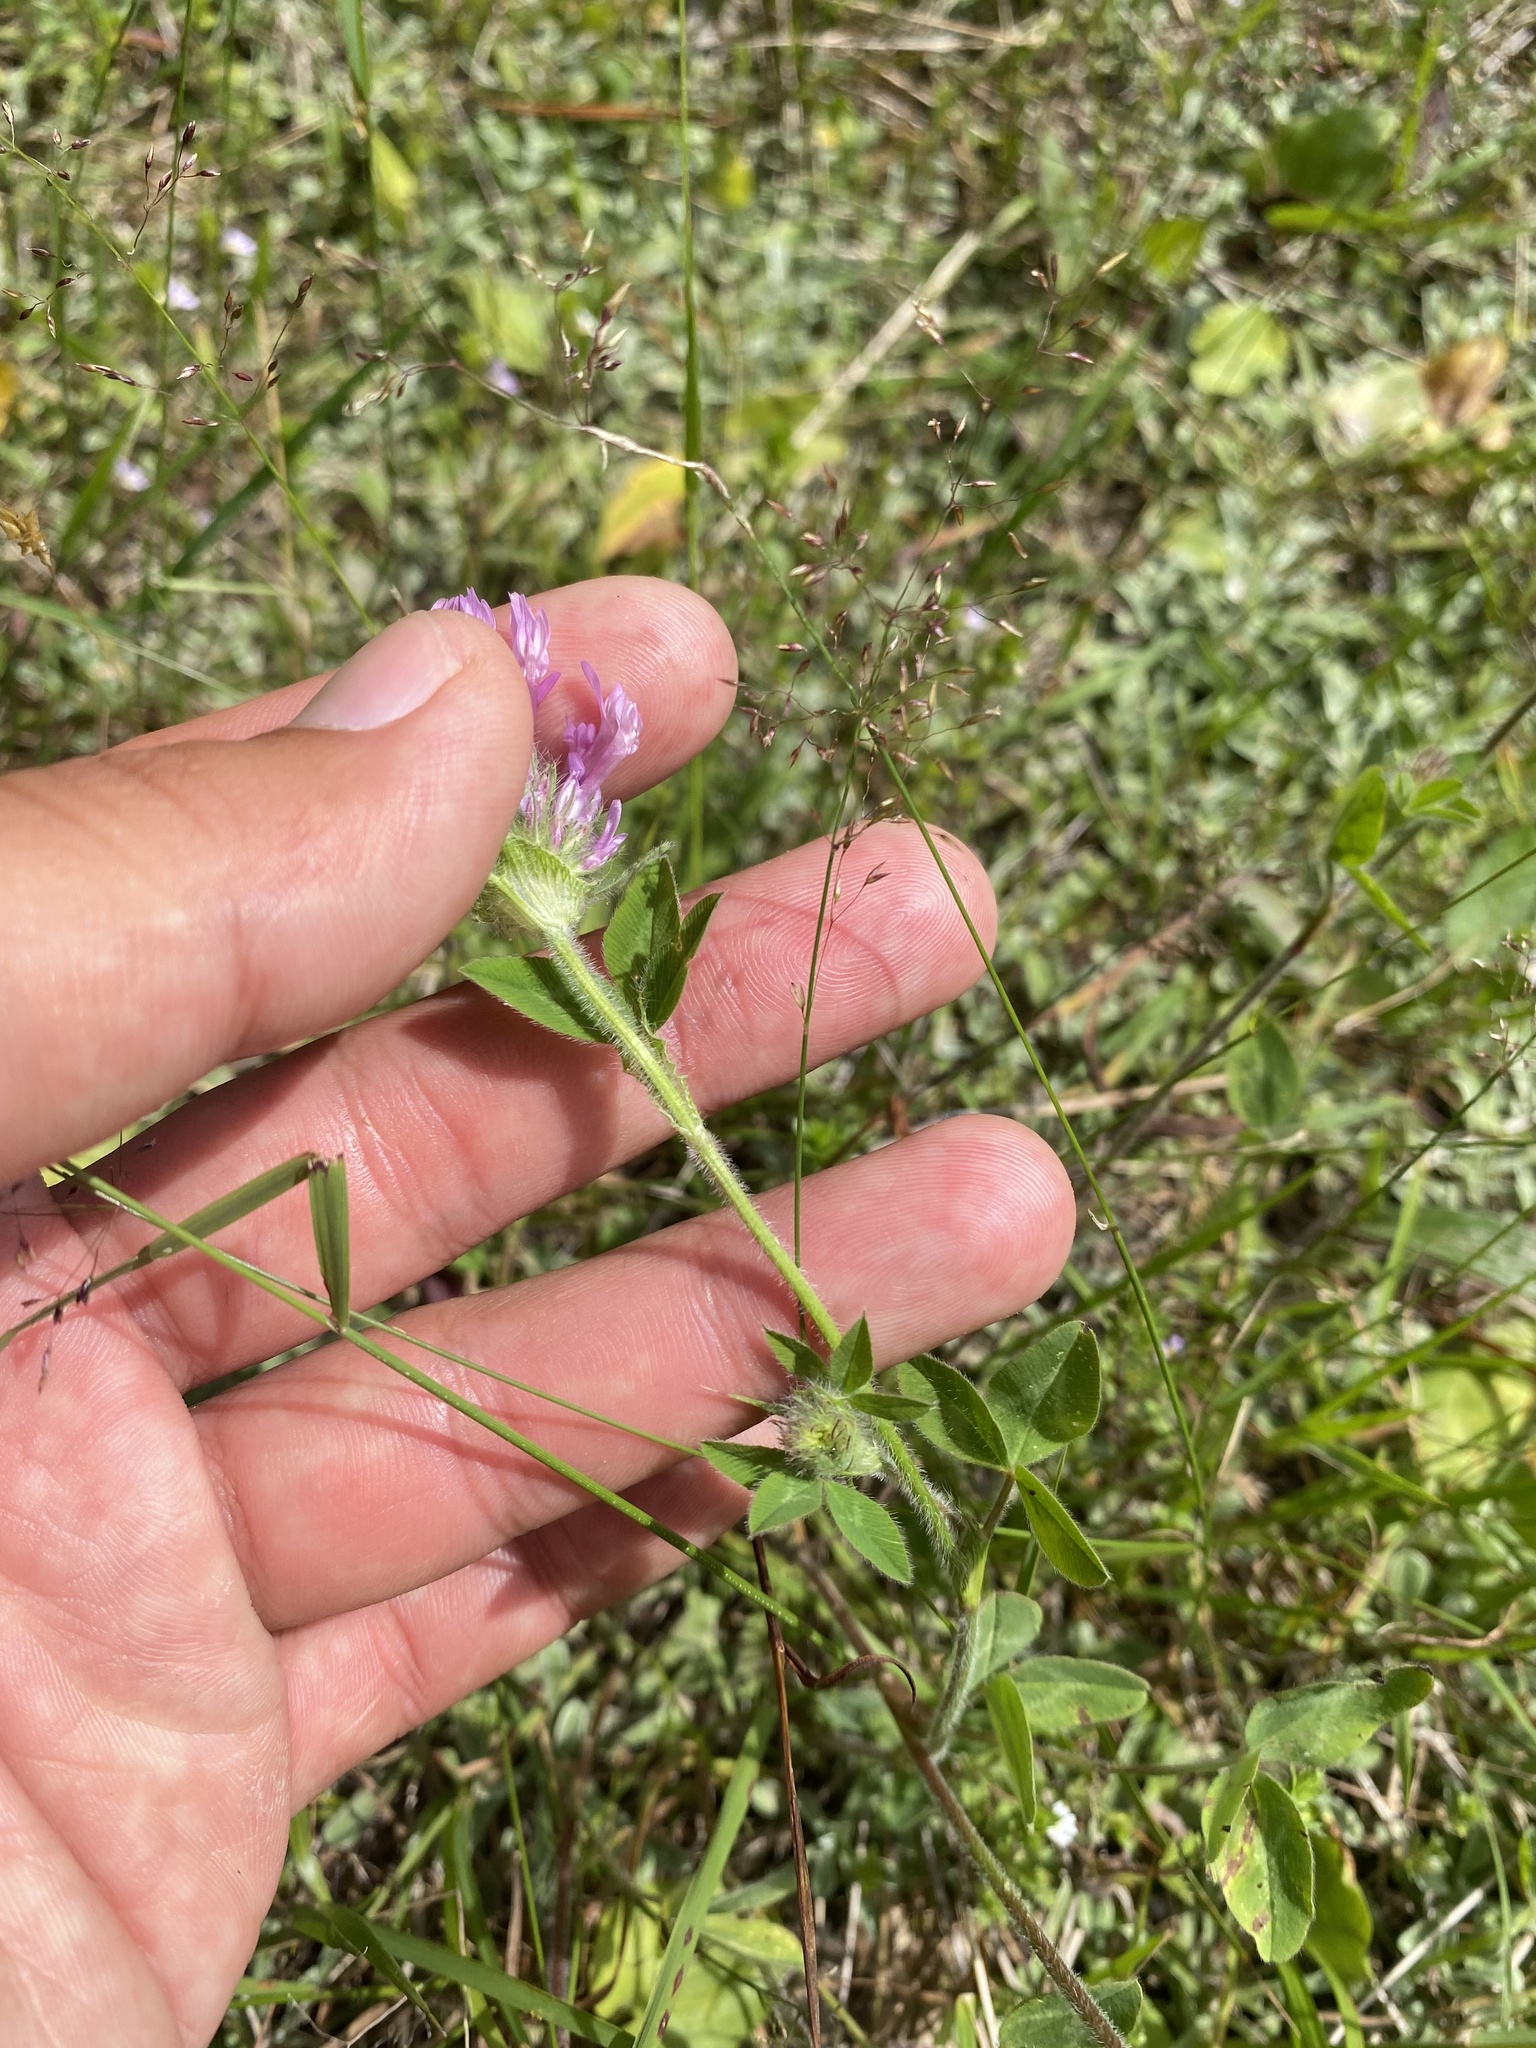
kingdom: Plantae
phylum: Tracheophyta
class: Magnoliopsida
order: Fabales
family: Fabaceae
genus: Trifolium
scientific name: Trifolium pratense
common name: Red clover
